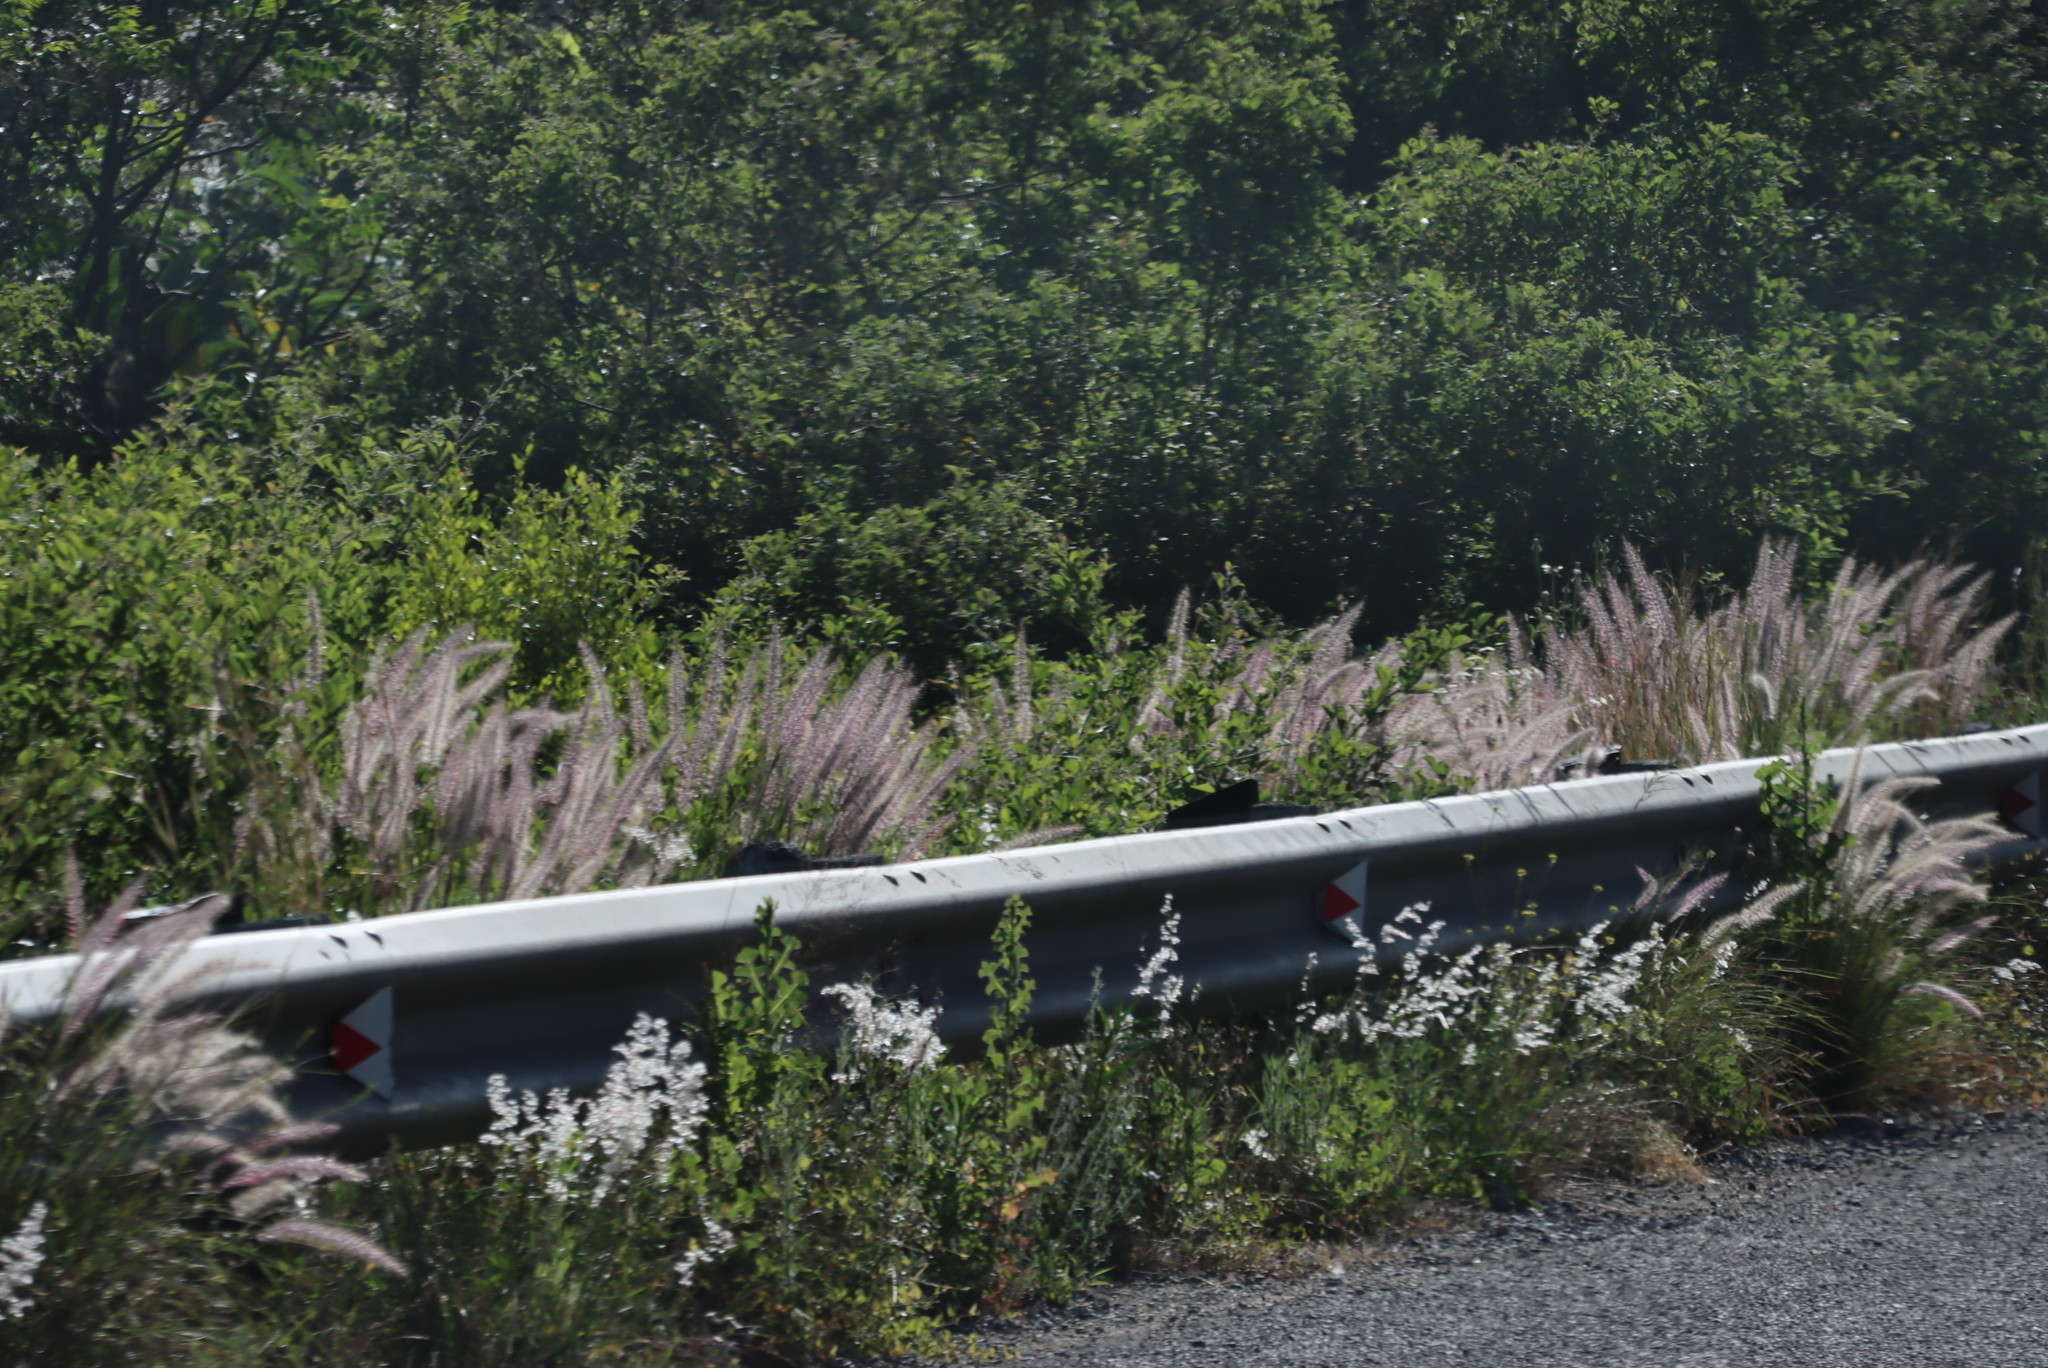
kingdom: Plantae
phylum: Tracheophyta
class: Liliopsida
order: Poales
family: Poaceae
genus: Cenchrus
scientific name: Cenchrus setaceus
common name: Crimson fountaingrass
